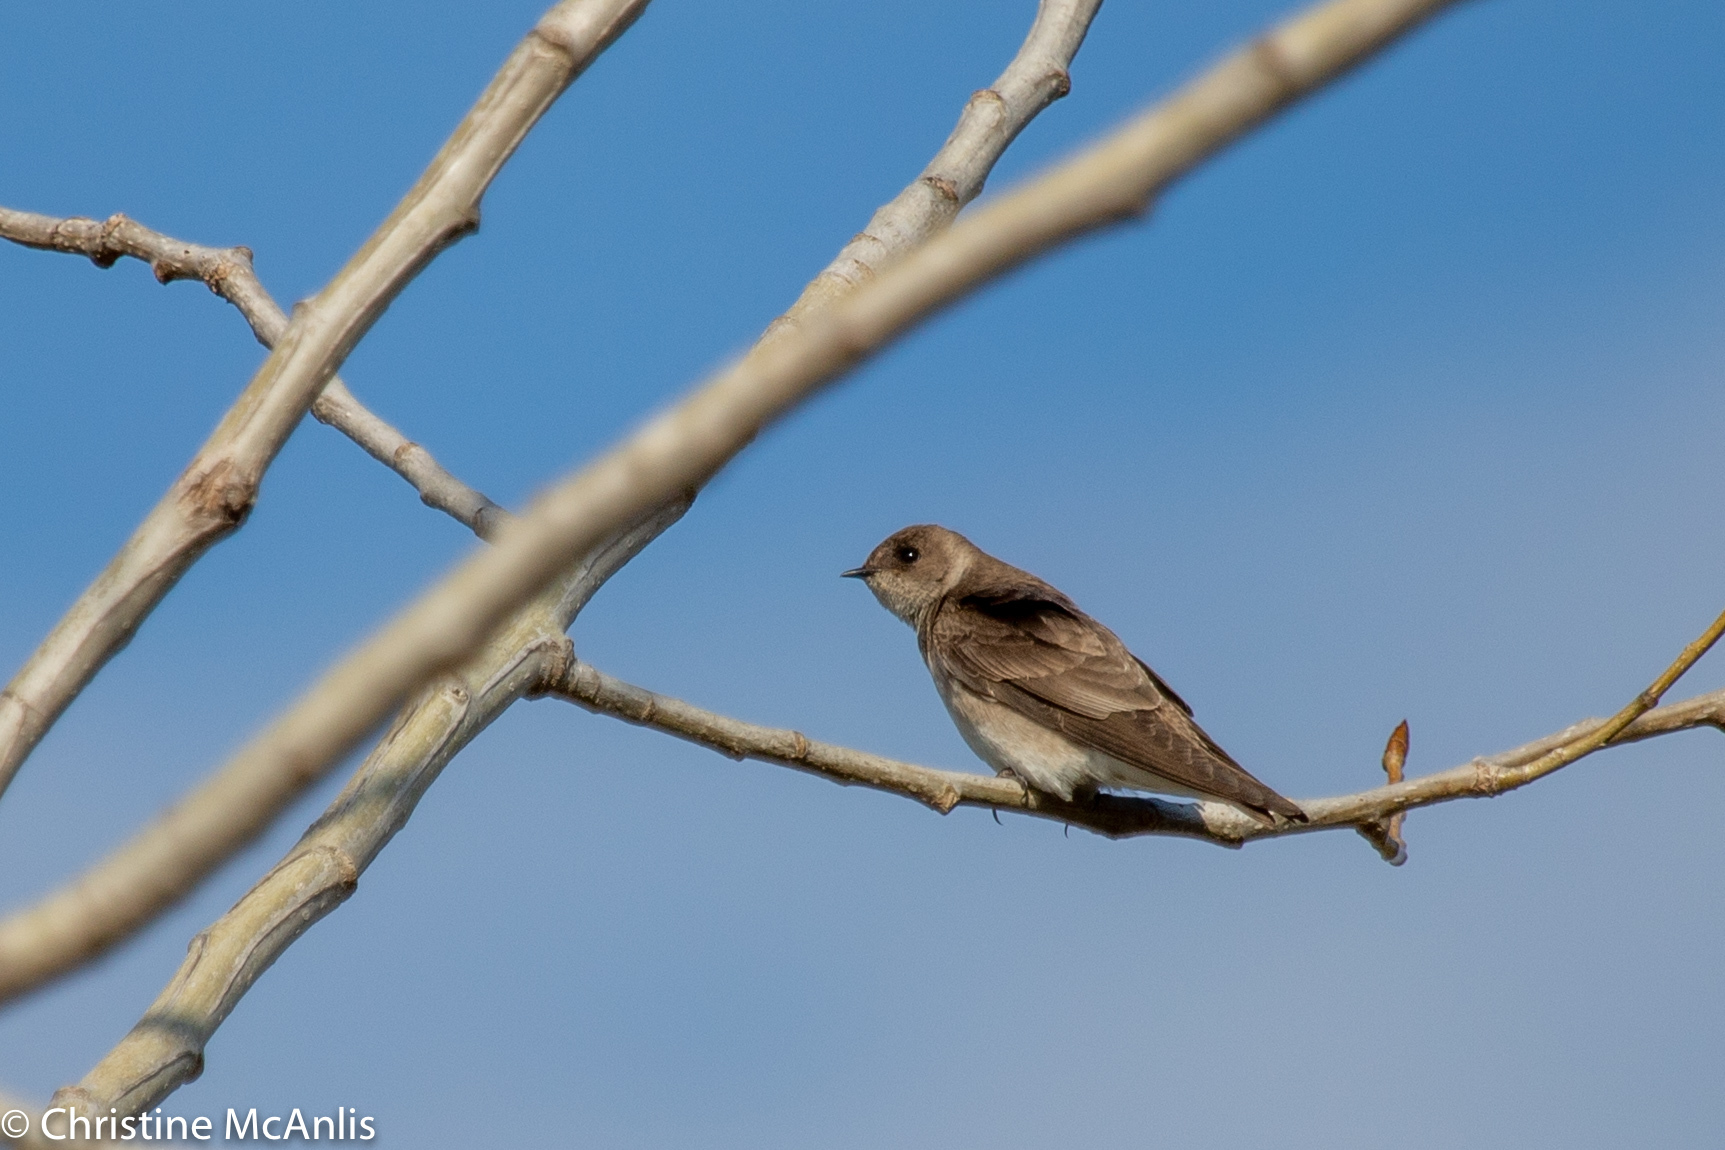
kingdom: Animalia
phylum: Chordata
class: Aves
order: Passeriformes
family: Hirundinidae
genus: Stelgidopteryx
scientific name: Stelgidopteryx serripennis
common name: Northern rough-winged swallow
